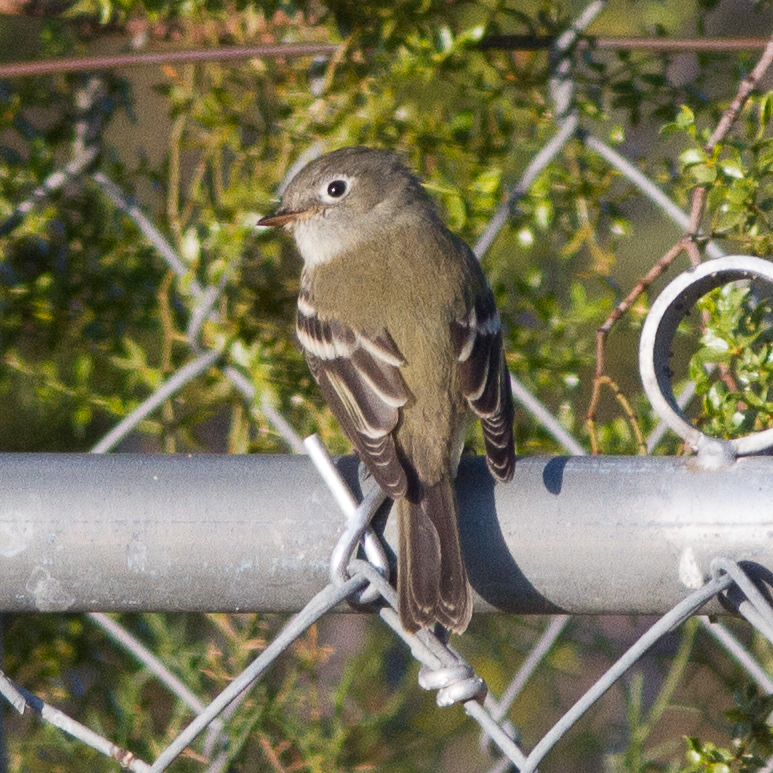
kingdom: Animalia
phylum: Chordata
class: Aves
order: Passeriformes
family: Tyrannidae
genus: Empidonax
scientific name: Empidonax hammondii
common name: Hammond's flycatcher
